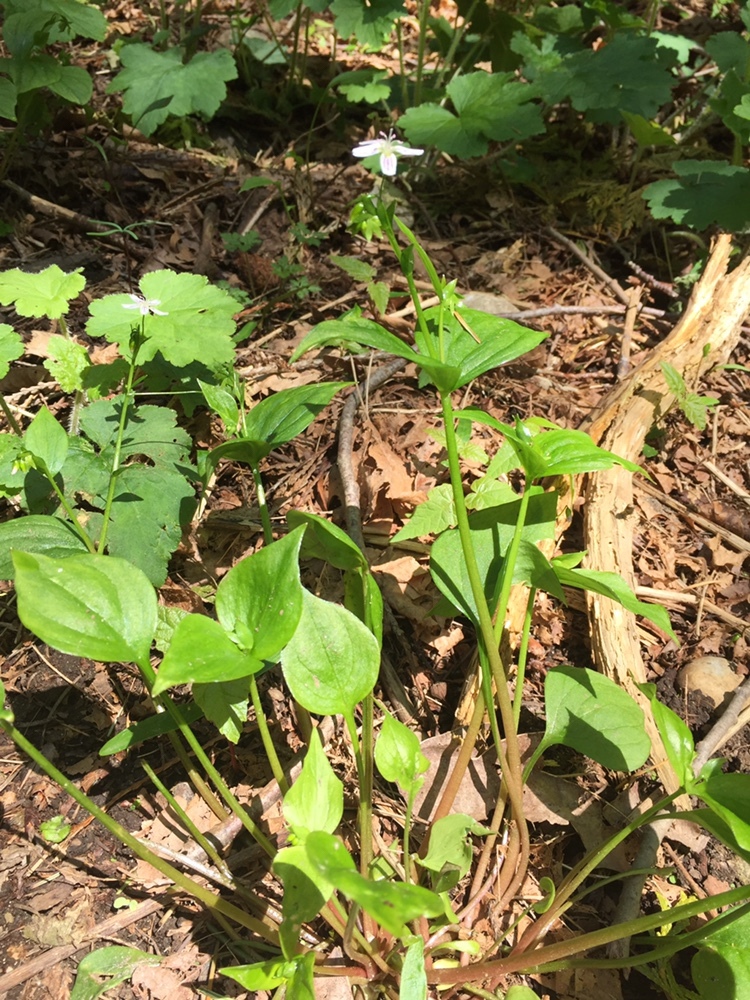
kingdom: Plantae
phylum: Tracheophyta
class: Magnoliopsida
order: Caryophyllales
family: Montiaceae
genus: Claytonia
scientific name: Claytonia sibirica
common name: Pink purslane
